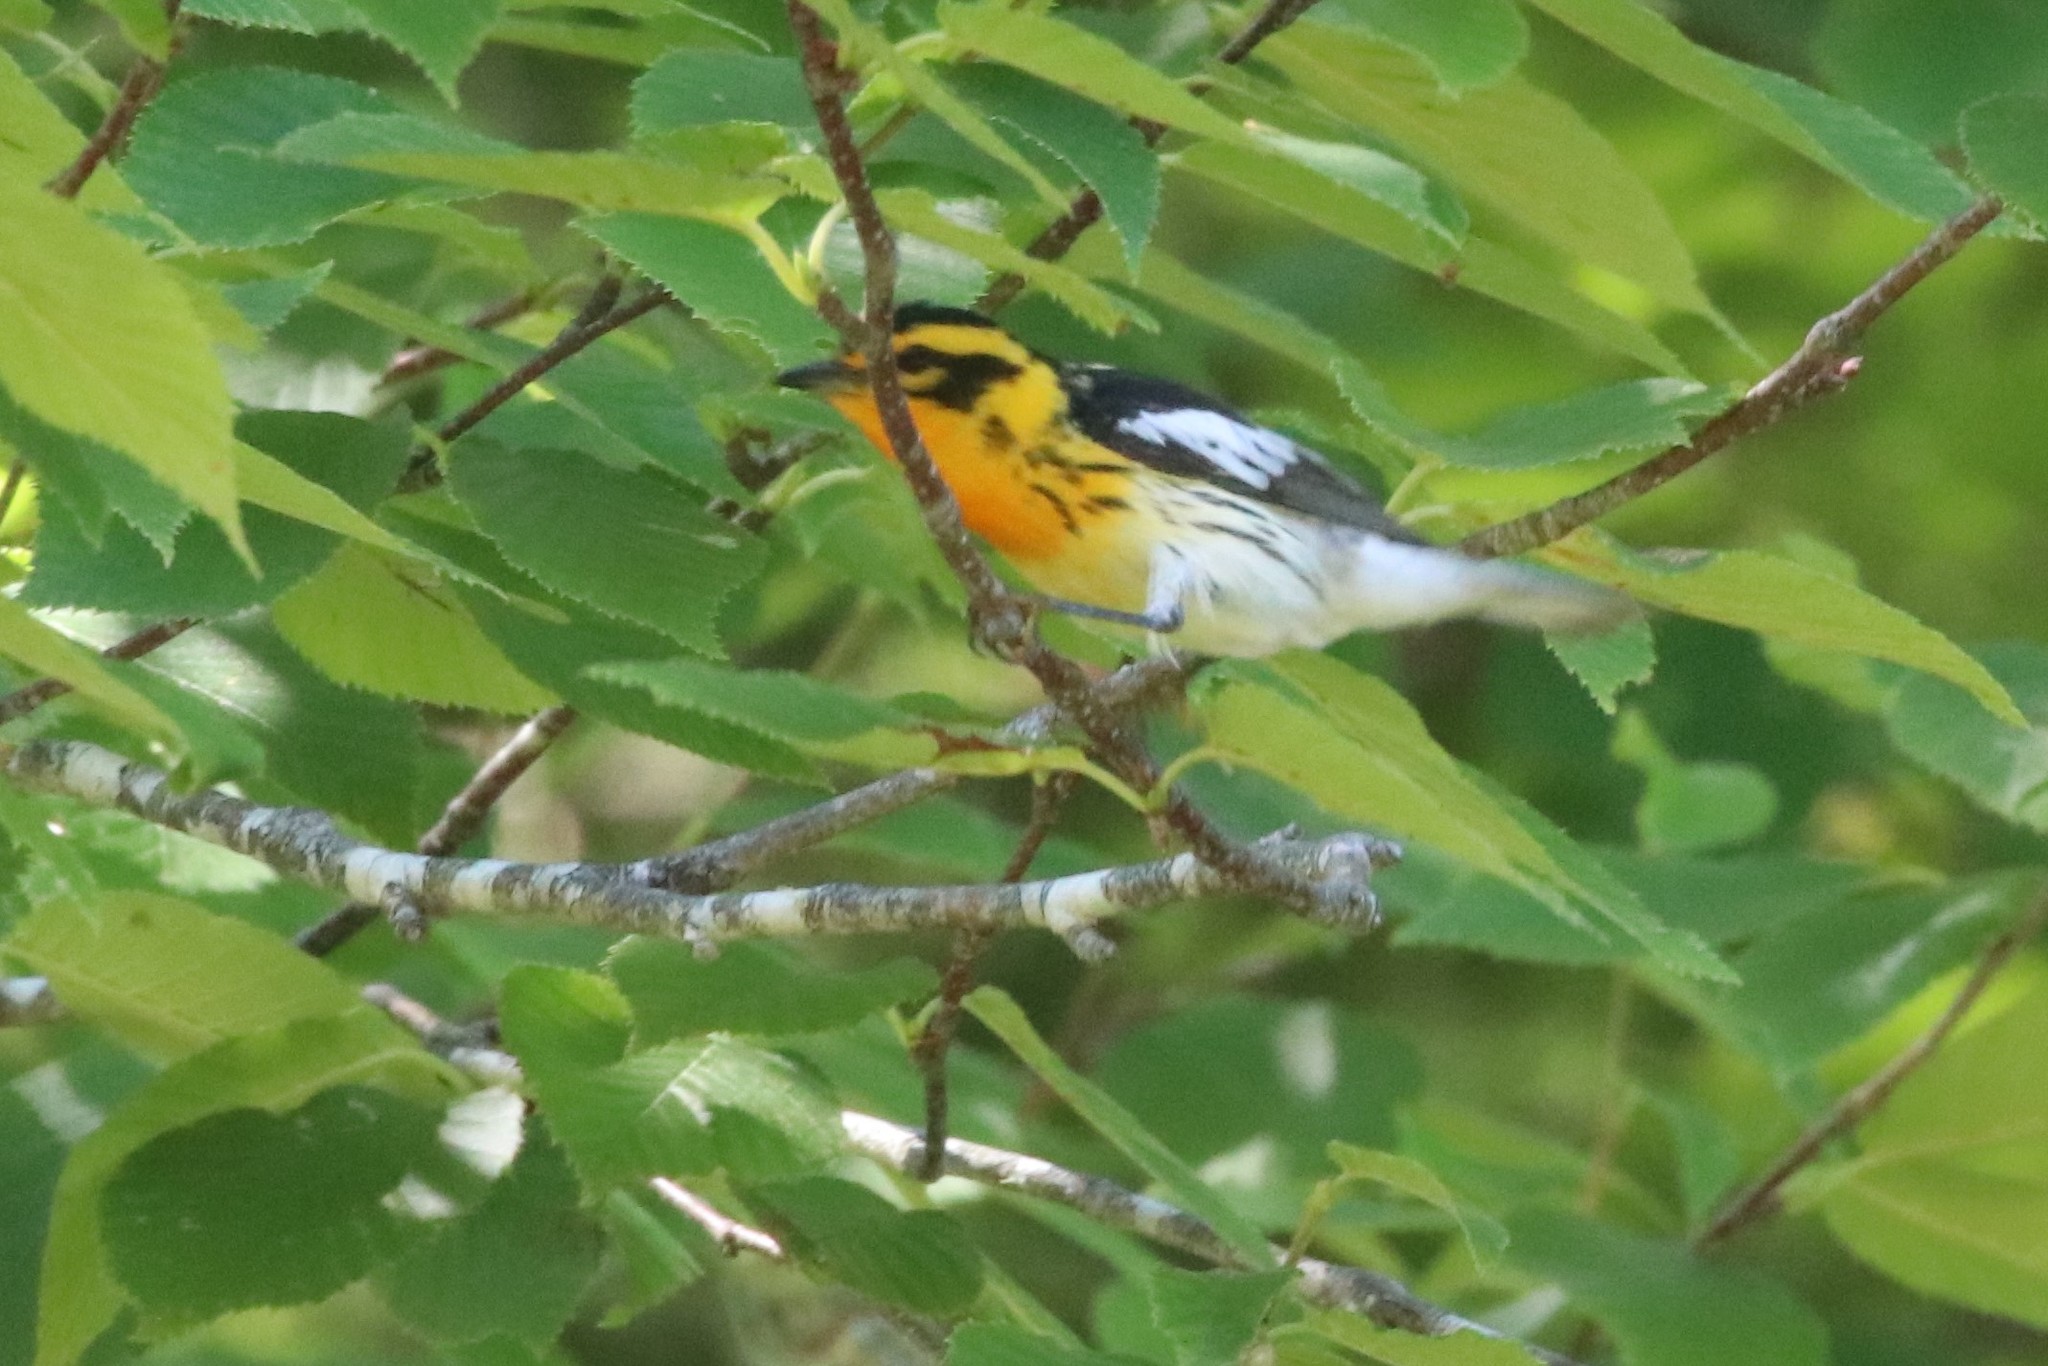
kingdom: Animalia
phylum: Chordata
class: Aves
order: Passeriformes
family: Parulidae
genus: Setophaga
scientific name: Setophaga fusca
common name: Blackburnian warbler
